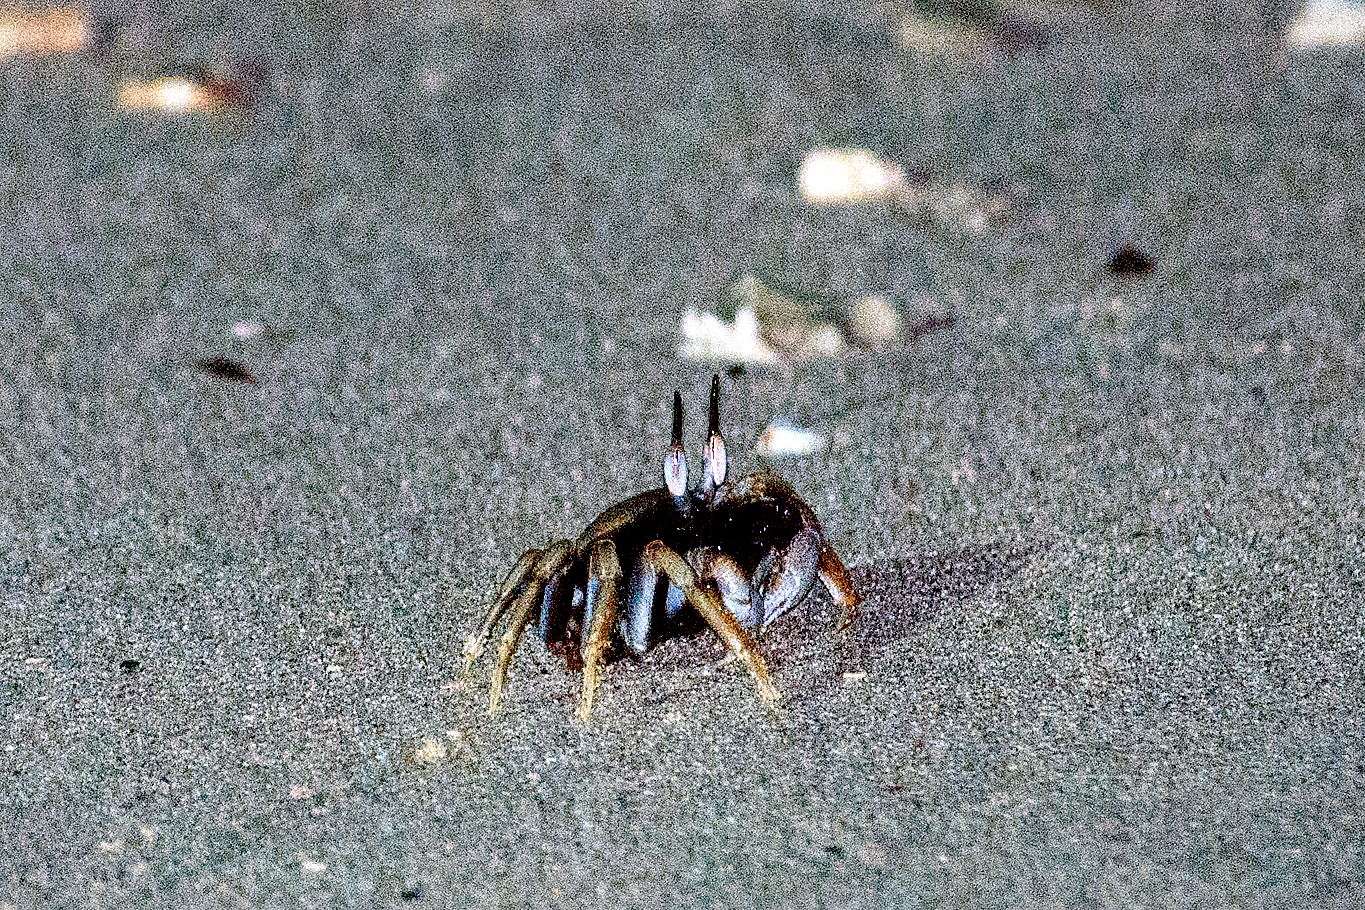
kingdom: Animalia
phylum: Arthropoda
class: Malacostraca
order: Decapoda
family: Ocypodidae
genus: Ocypode
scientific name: Ocypode ceratophthalmus
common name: Indo-pacific ghost crab
